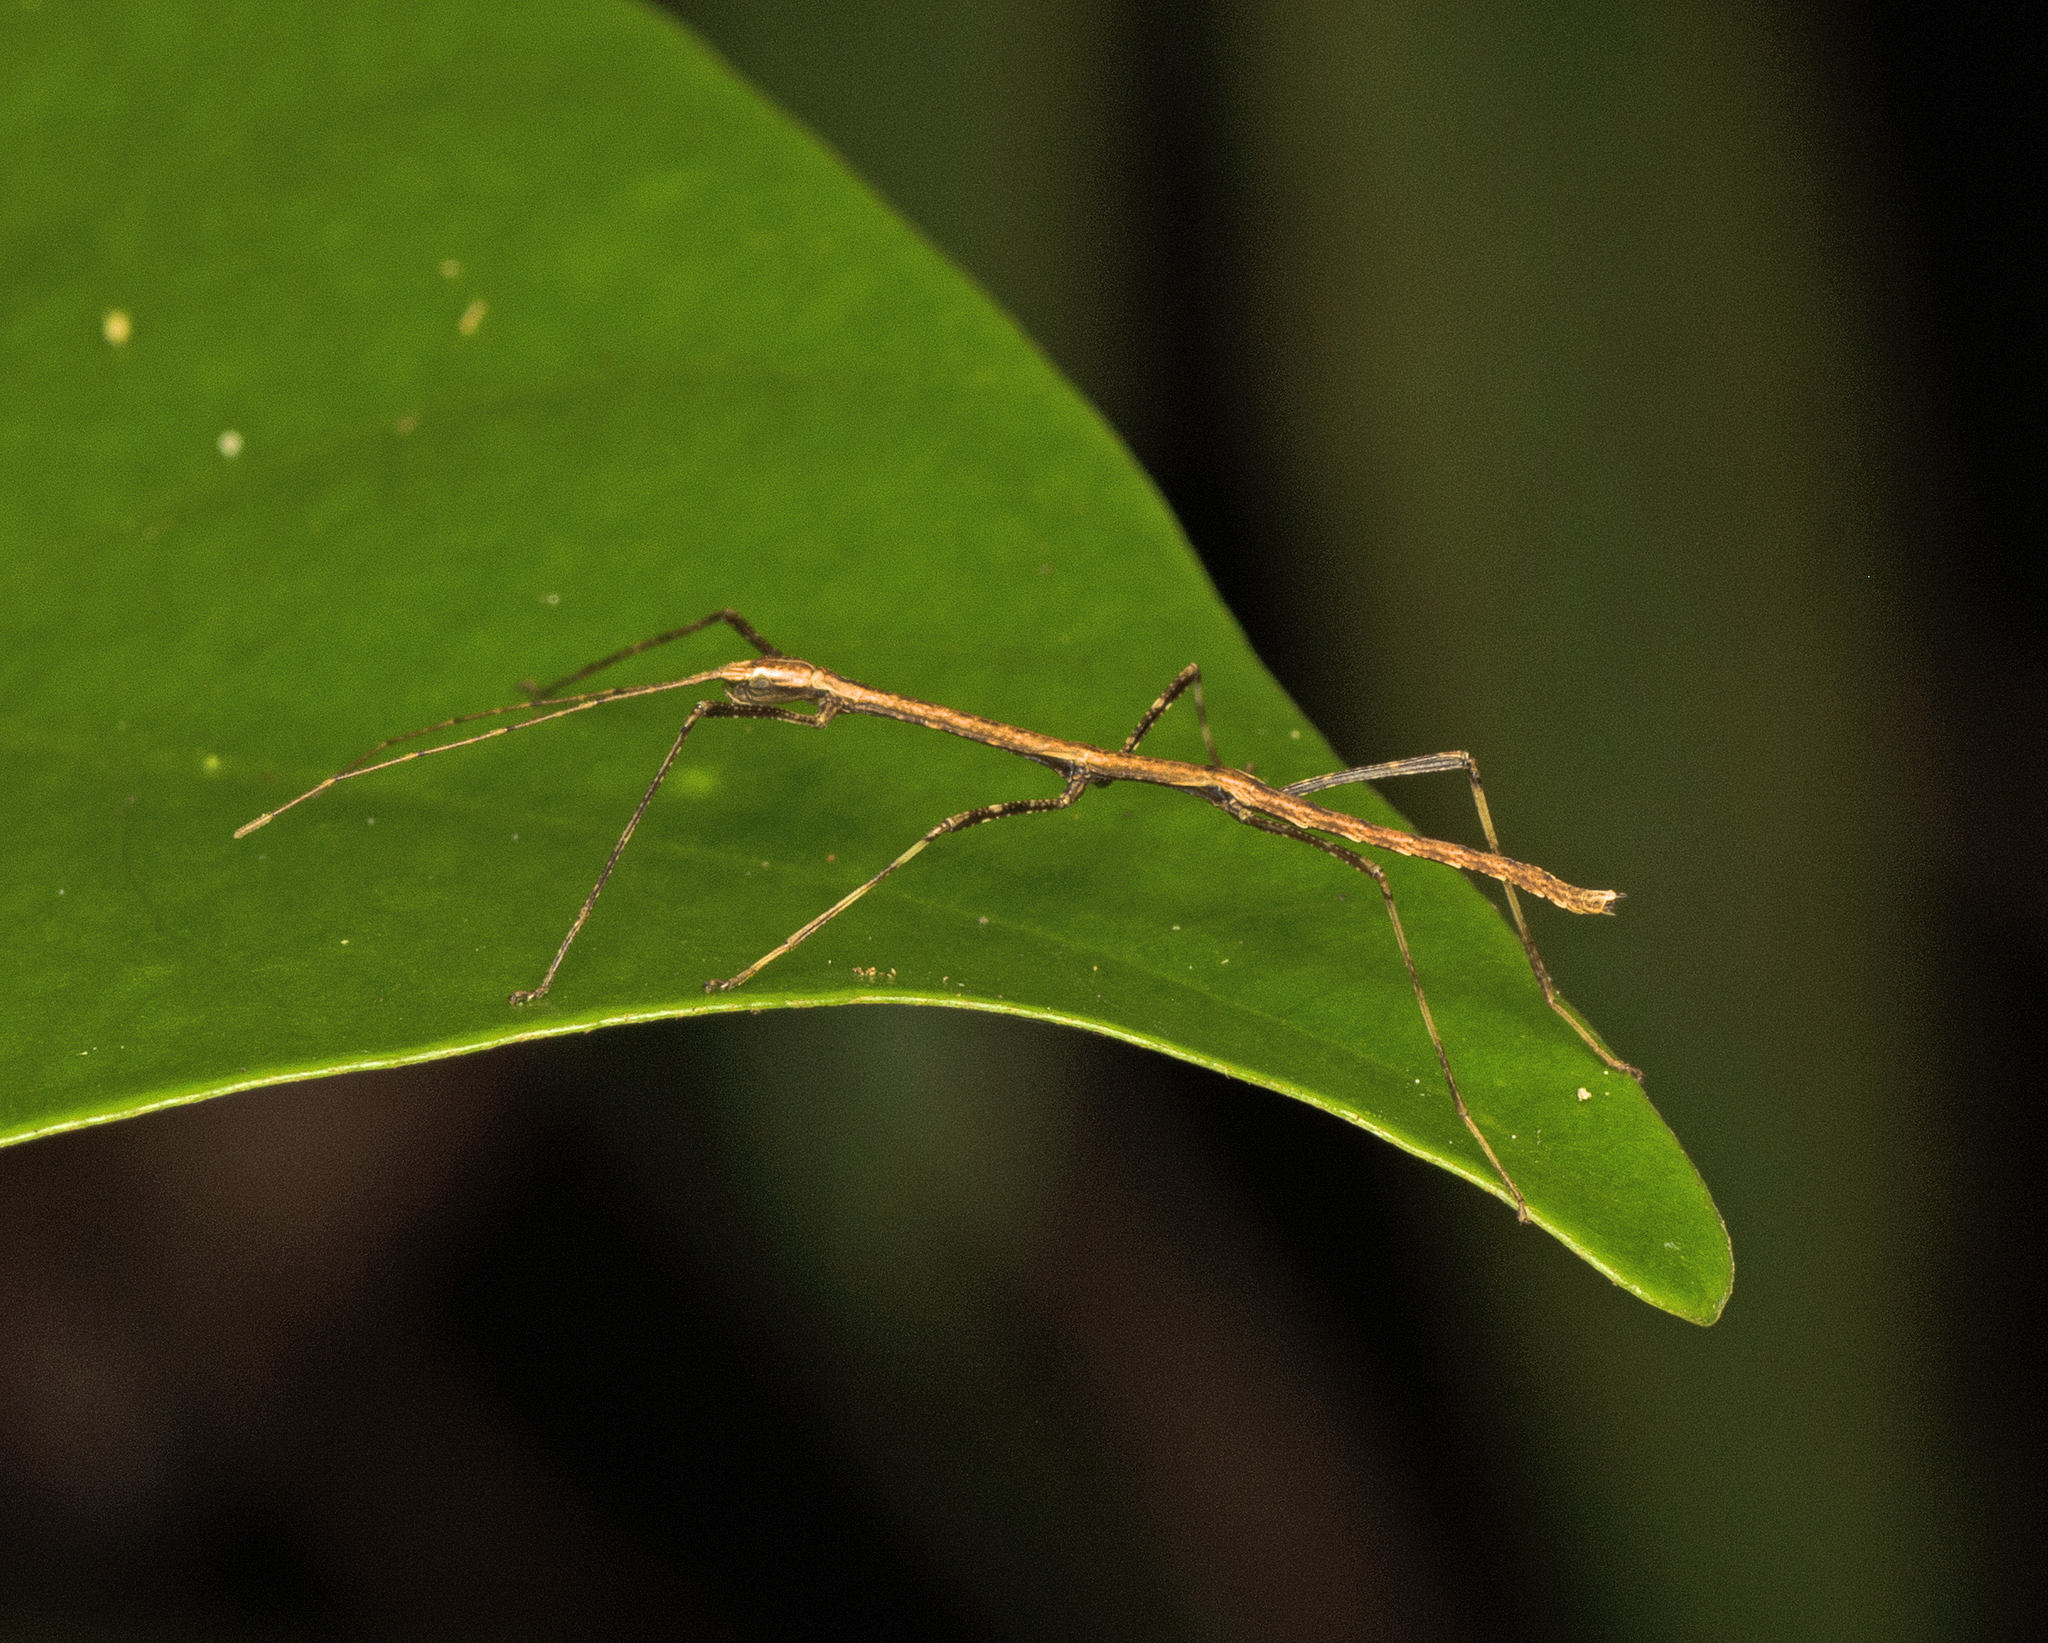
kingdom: Animalia
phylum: Arthropoda
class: Insecta
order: Phasmida
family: Lonchodidae
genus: Austrocarausius
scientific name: Austrocarausius
